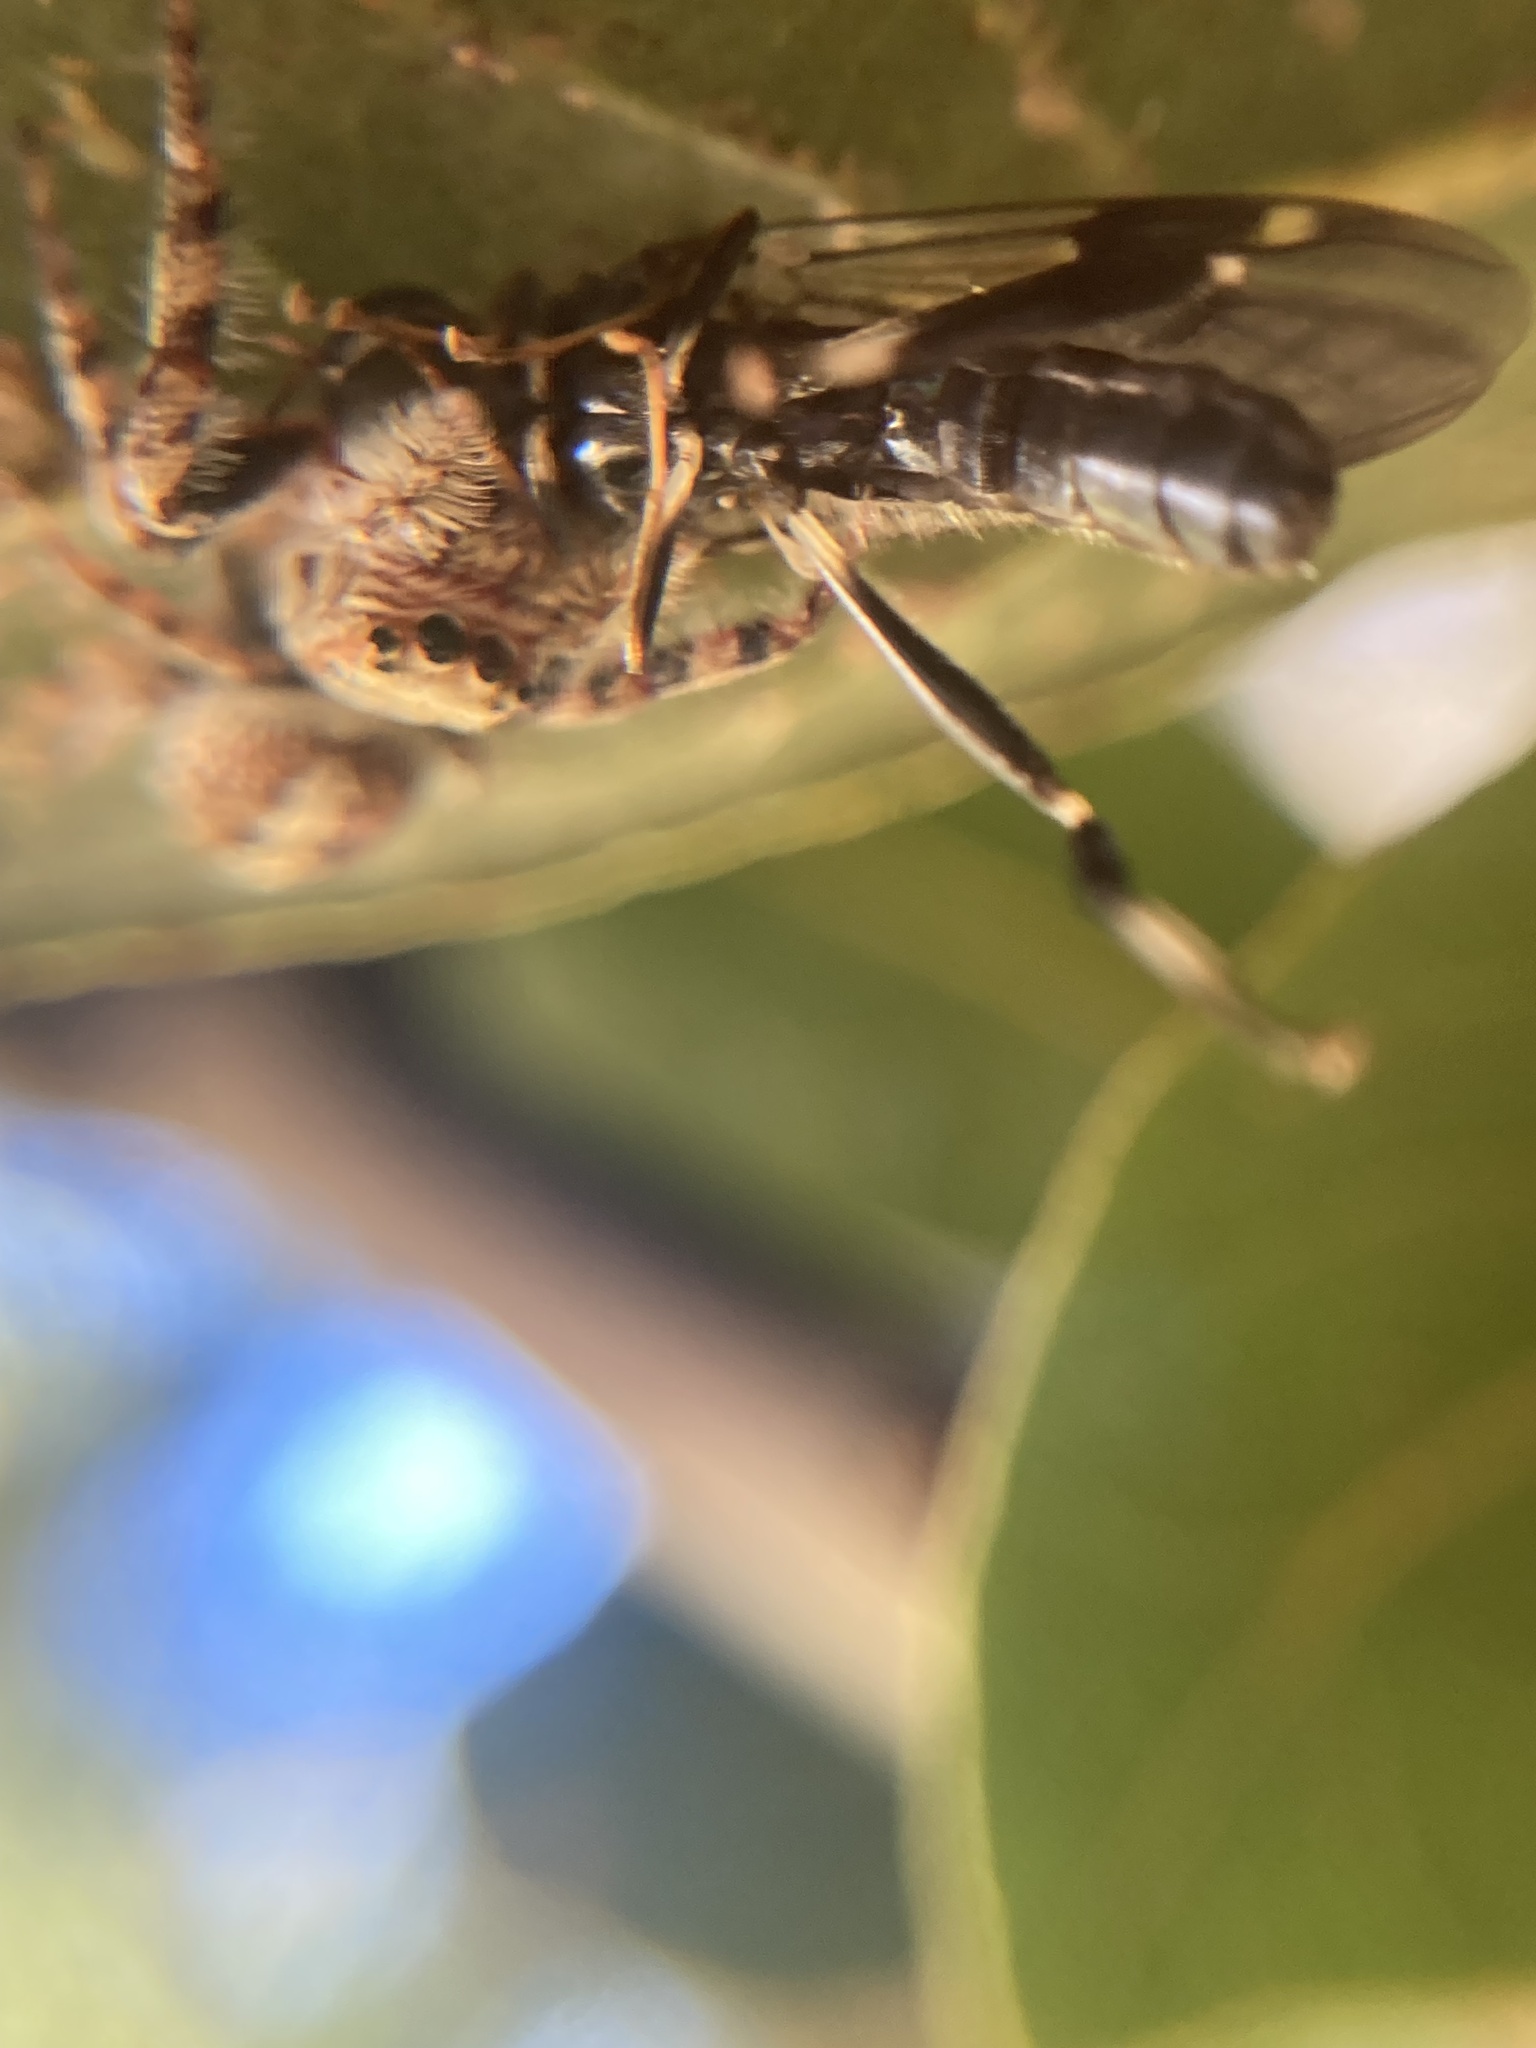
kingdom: Animalia
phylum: Arthropoda
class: Arachnida
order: Araneae
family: Salticidae
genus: Opisthoncus
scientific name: Opisthoncus quadratarius
